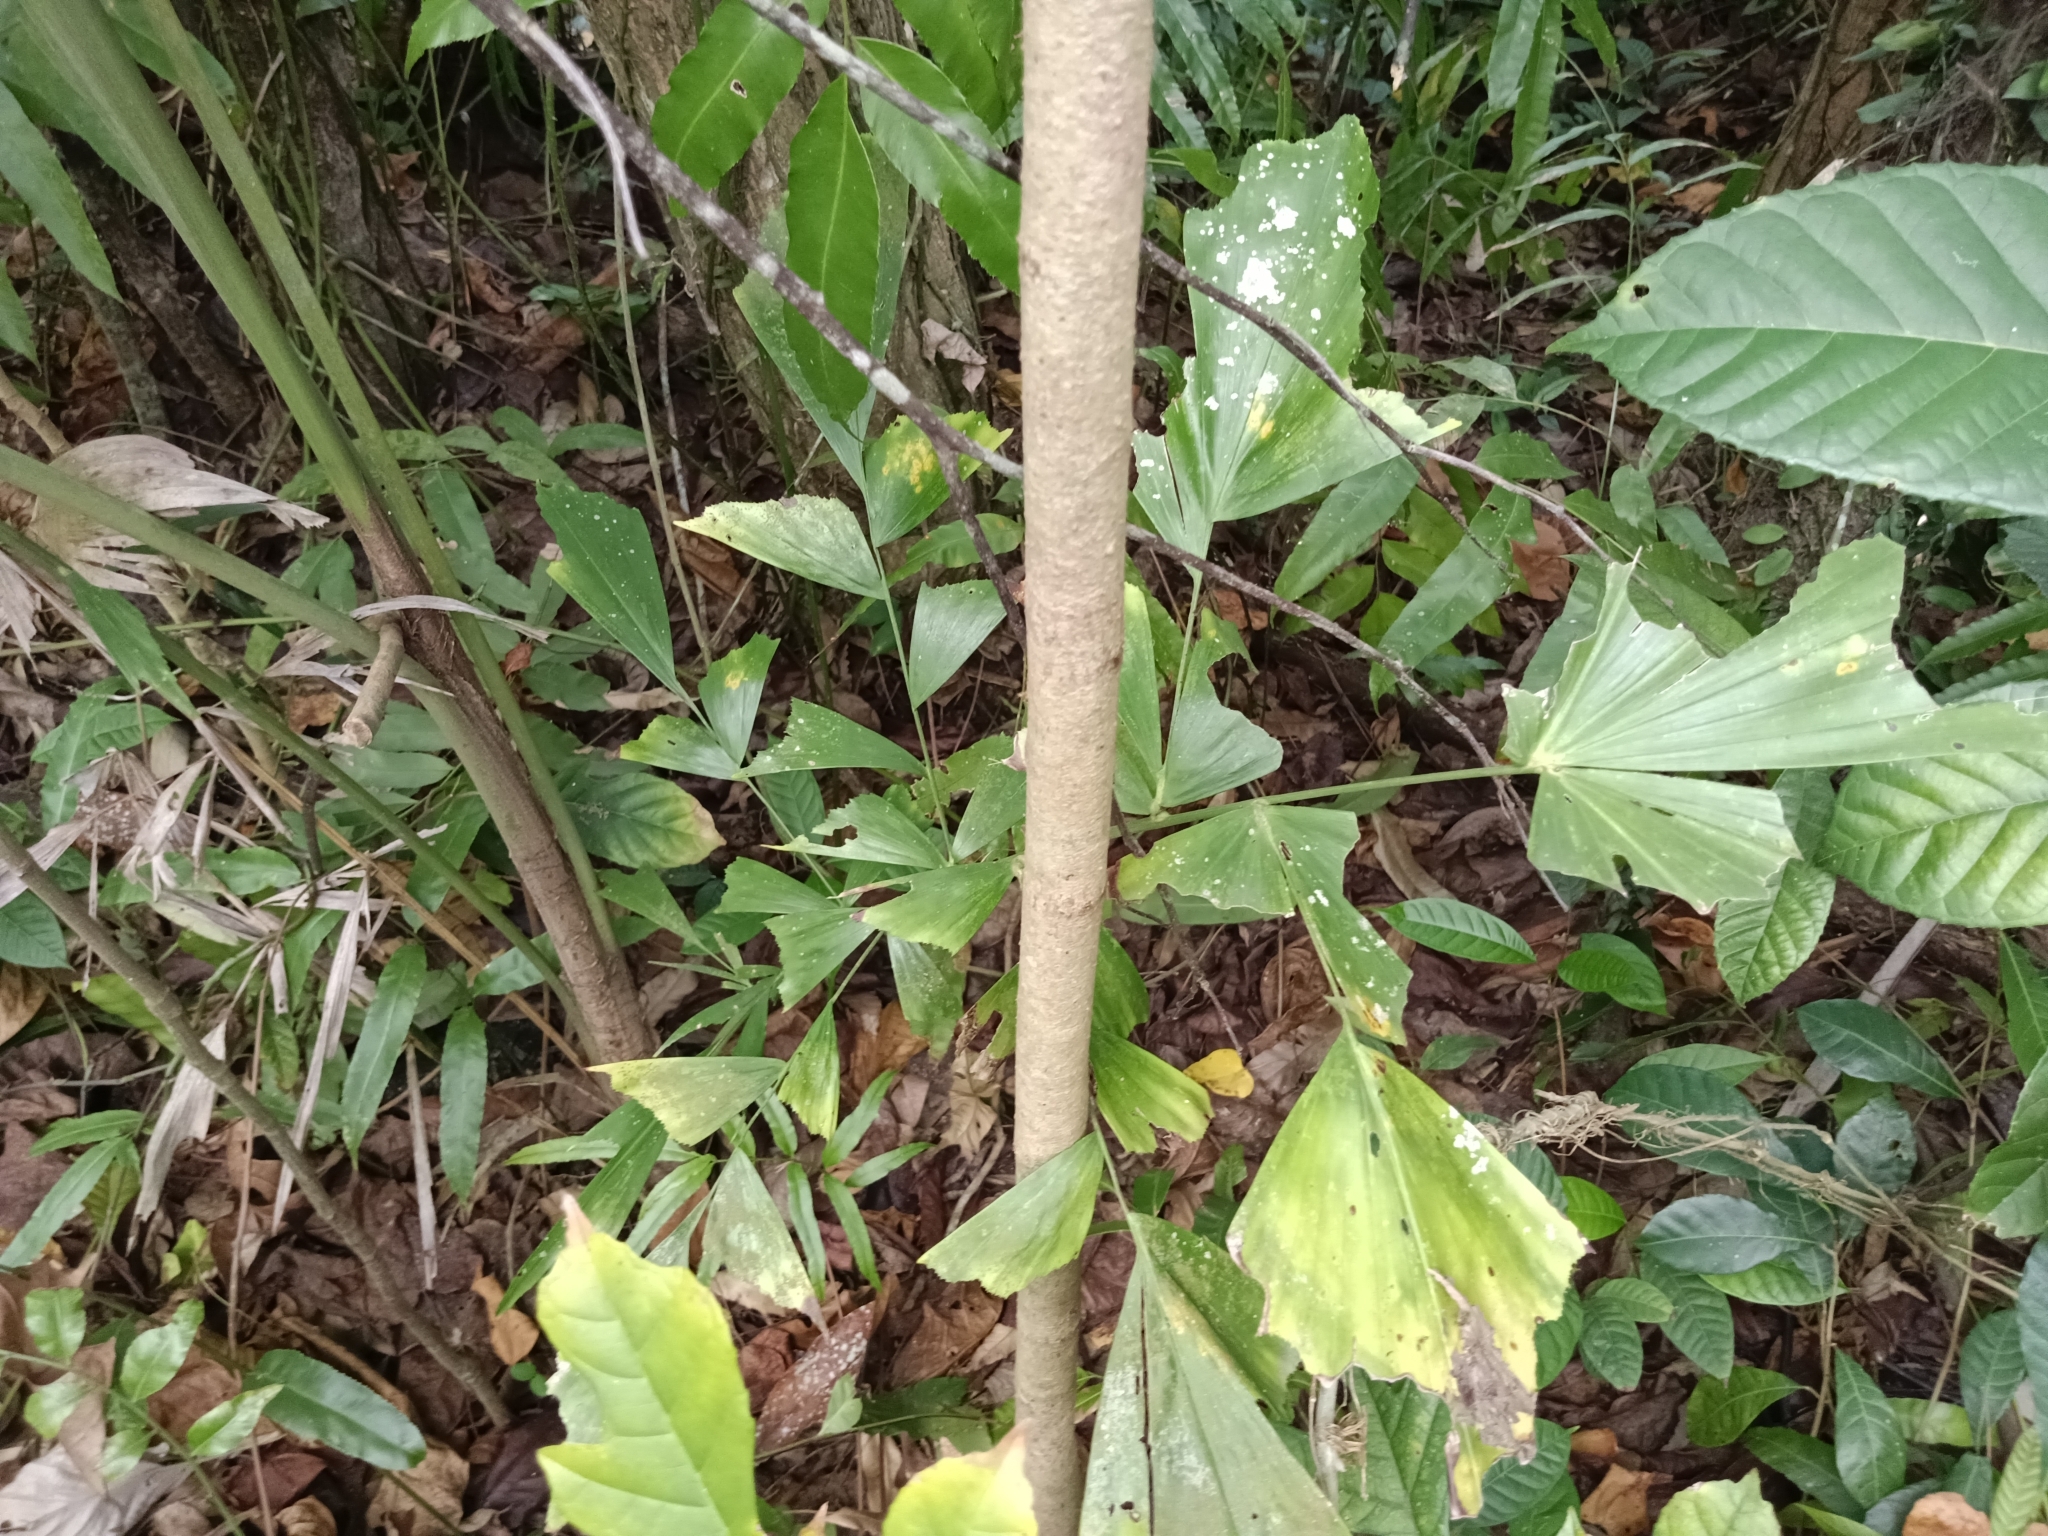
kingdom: Plantae
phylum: Tracheophyta
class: Liliopsida
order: Arecales
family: Arecaceae
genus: Caryota
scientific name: Caryota urens
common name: Jaggery palm
